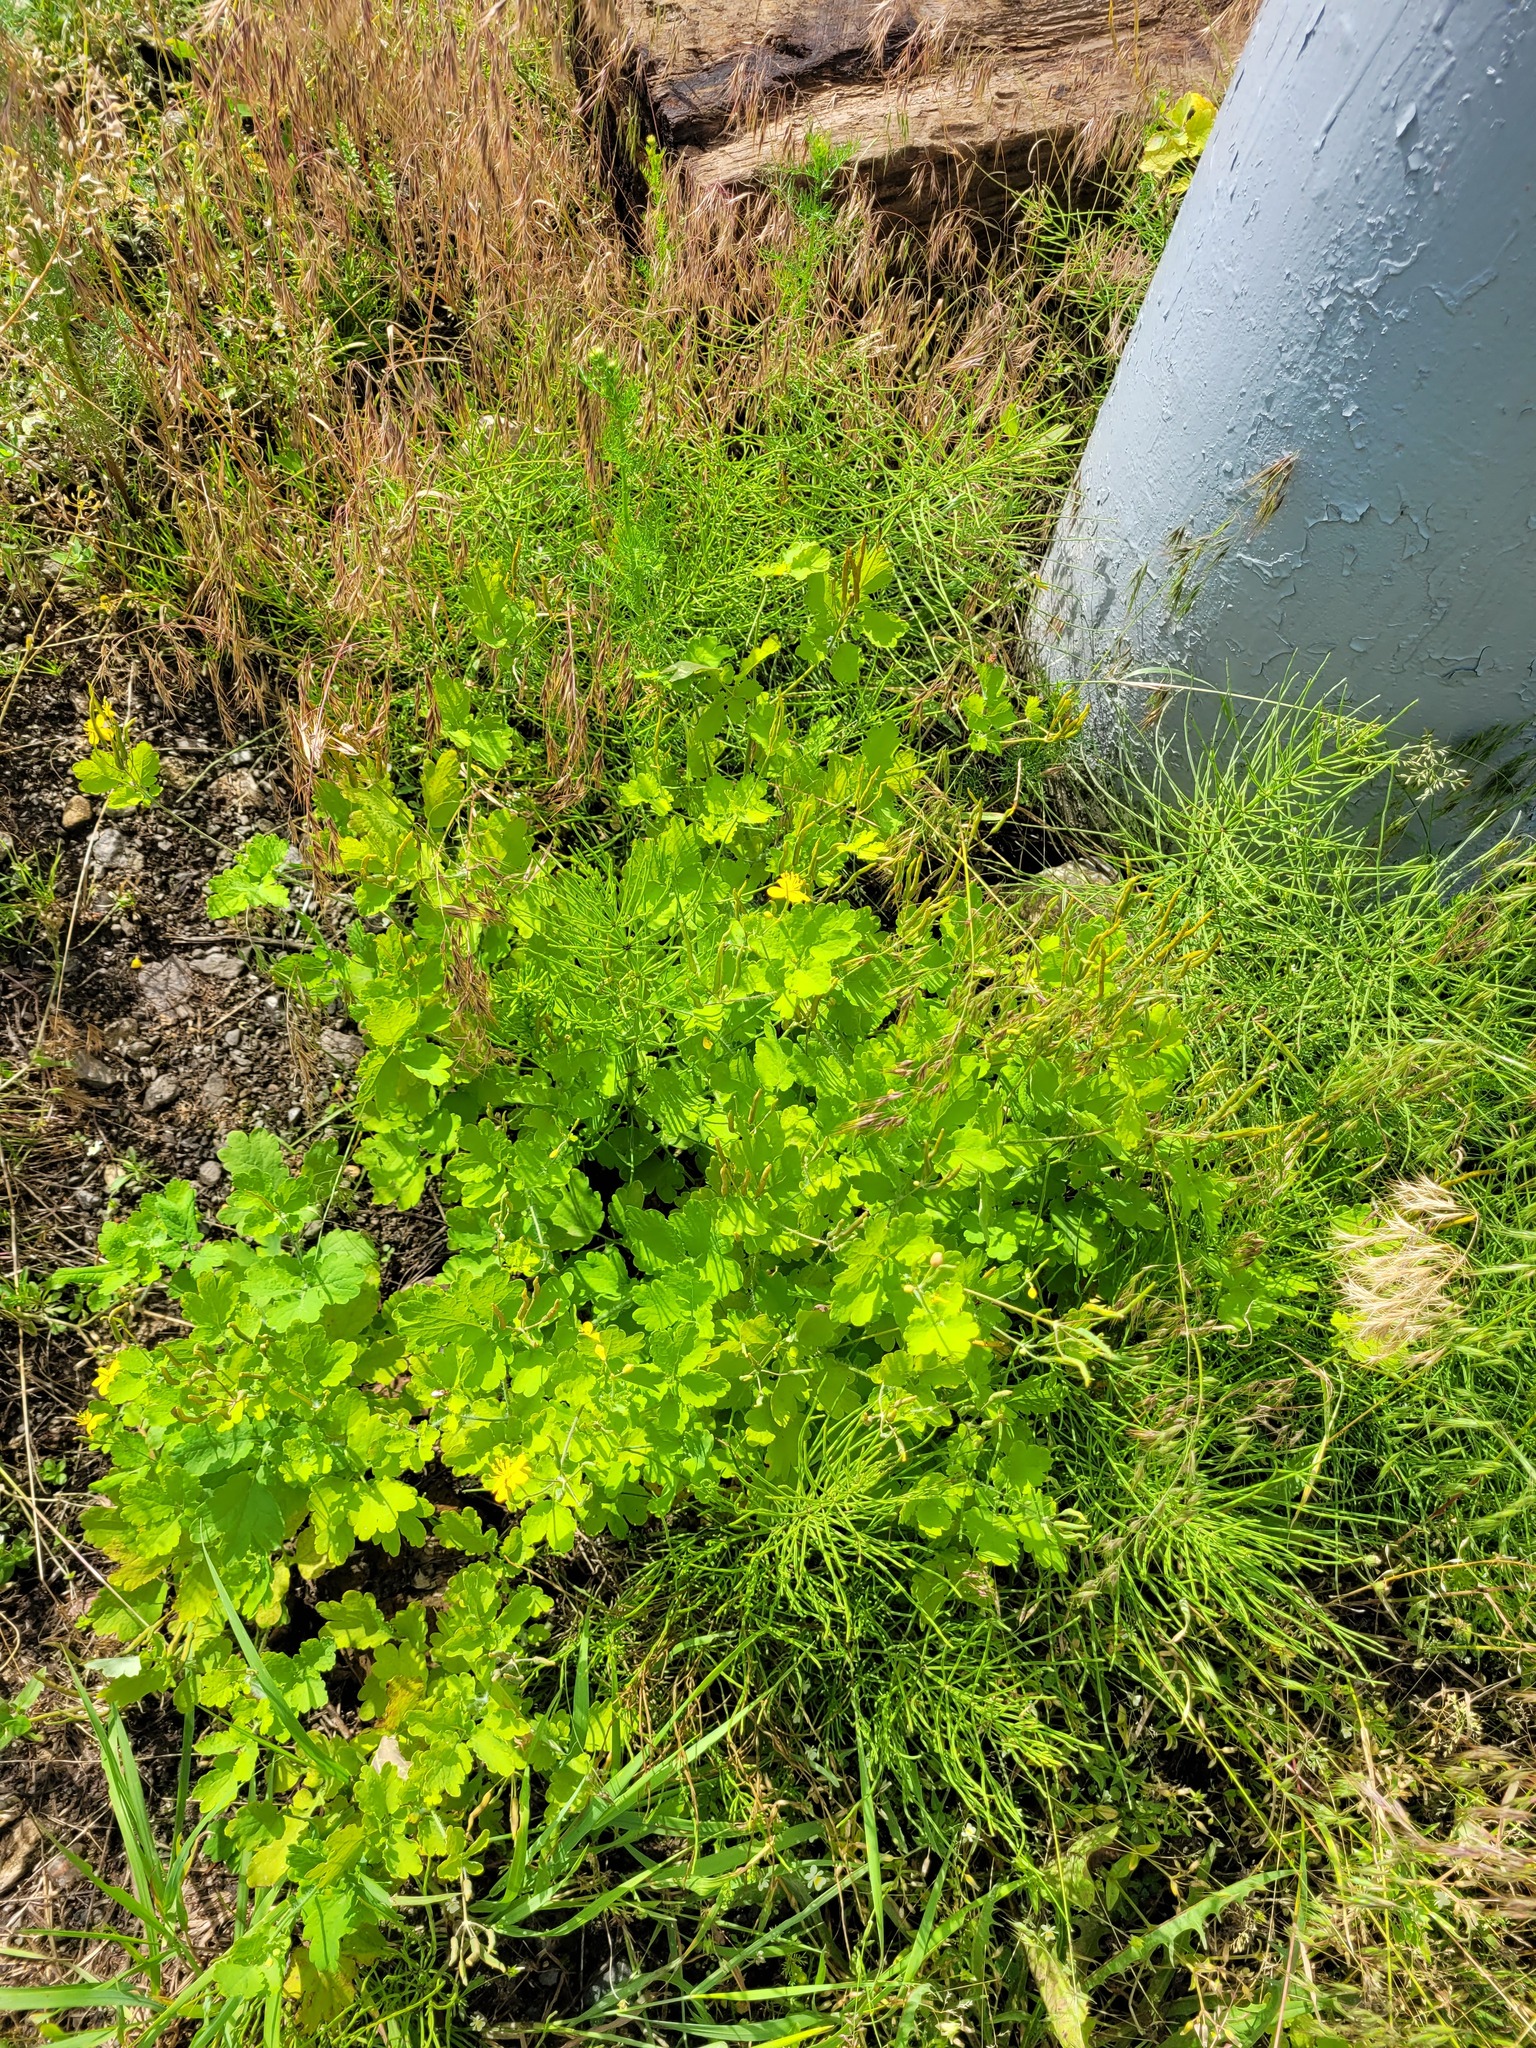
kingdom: Plantae
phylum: Tracheophyta
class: Magnoliopsida
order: Ranunculales
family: Papaveraceae
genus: Chelidonium
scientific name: Chelidonium majus
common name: Greater celandine
